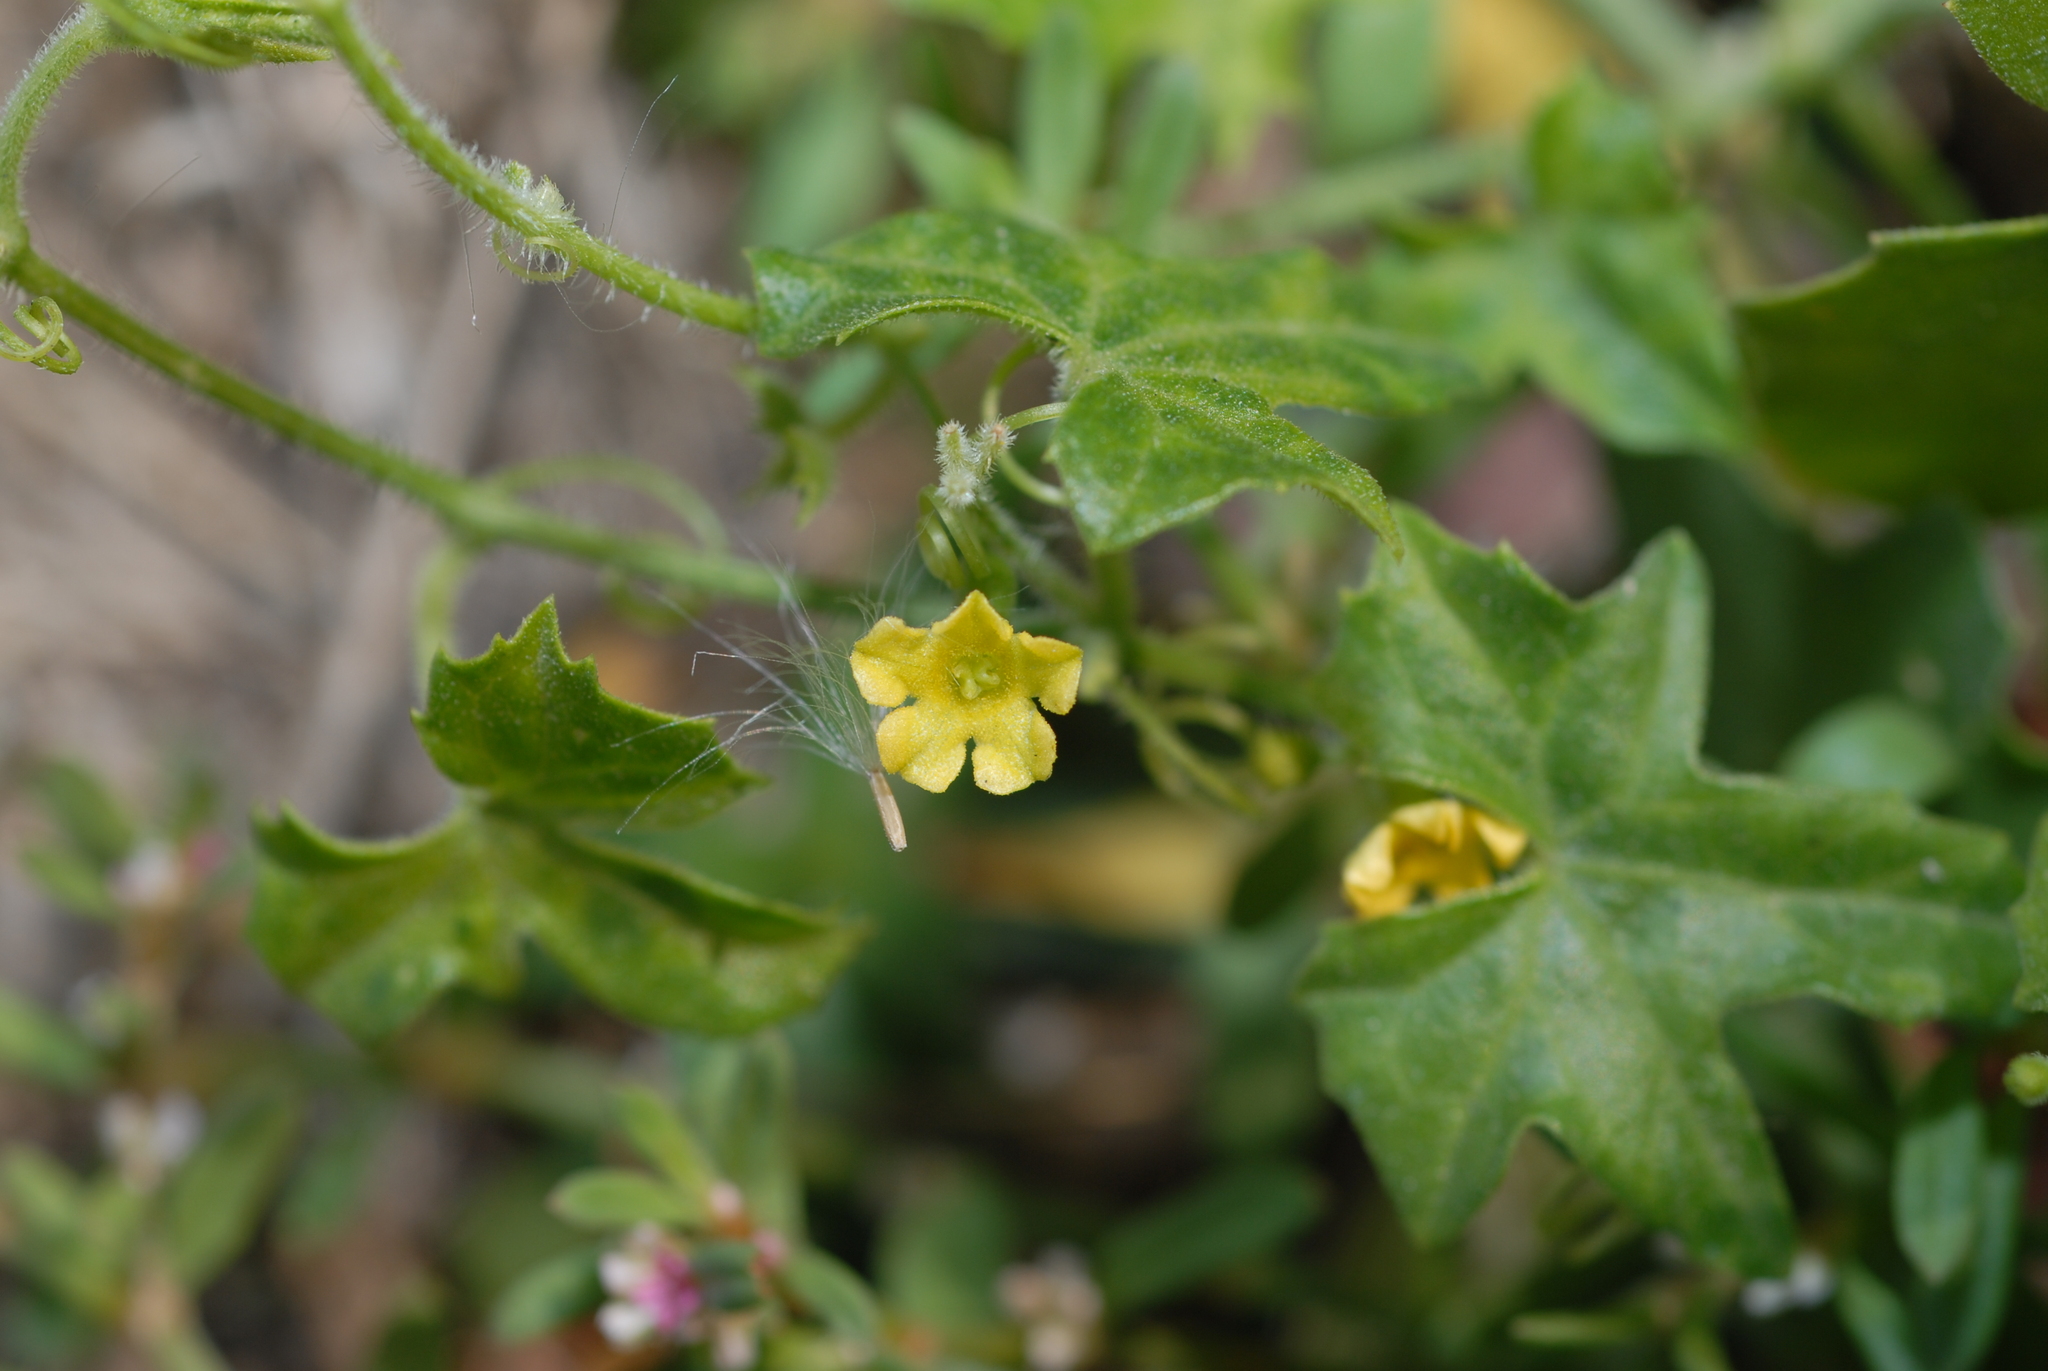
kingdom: Plantae
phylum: Tracheophyta
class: Magnoliopsida
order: Cucurbitales
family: Cucurbitaceae
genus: Melothria
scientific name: Melothria pendula
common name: Creeping-cucumber
